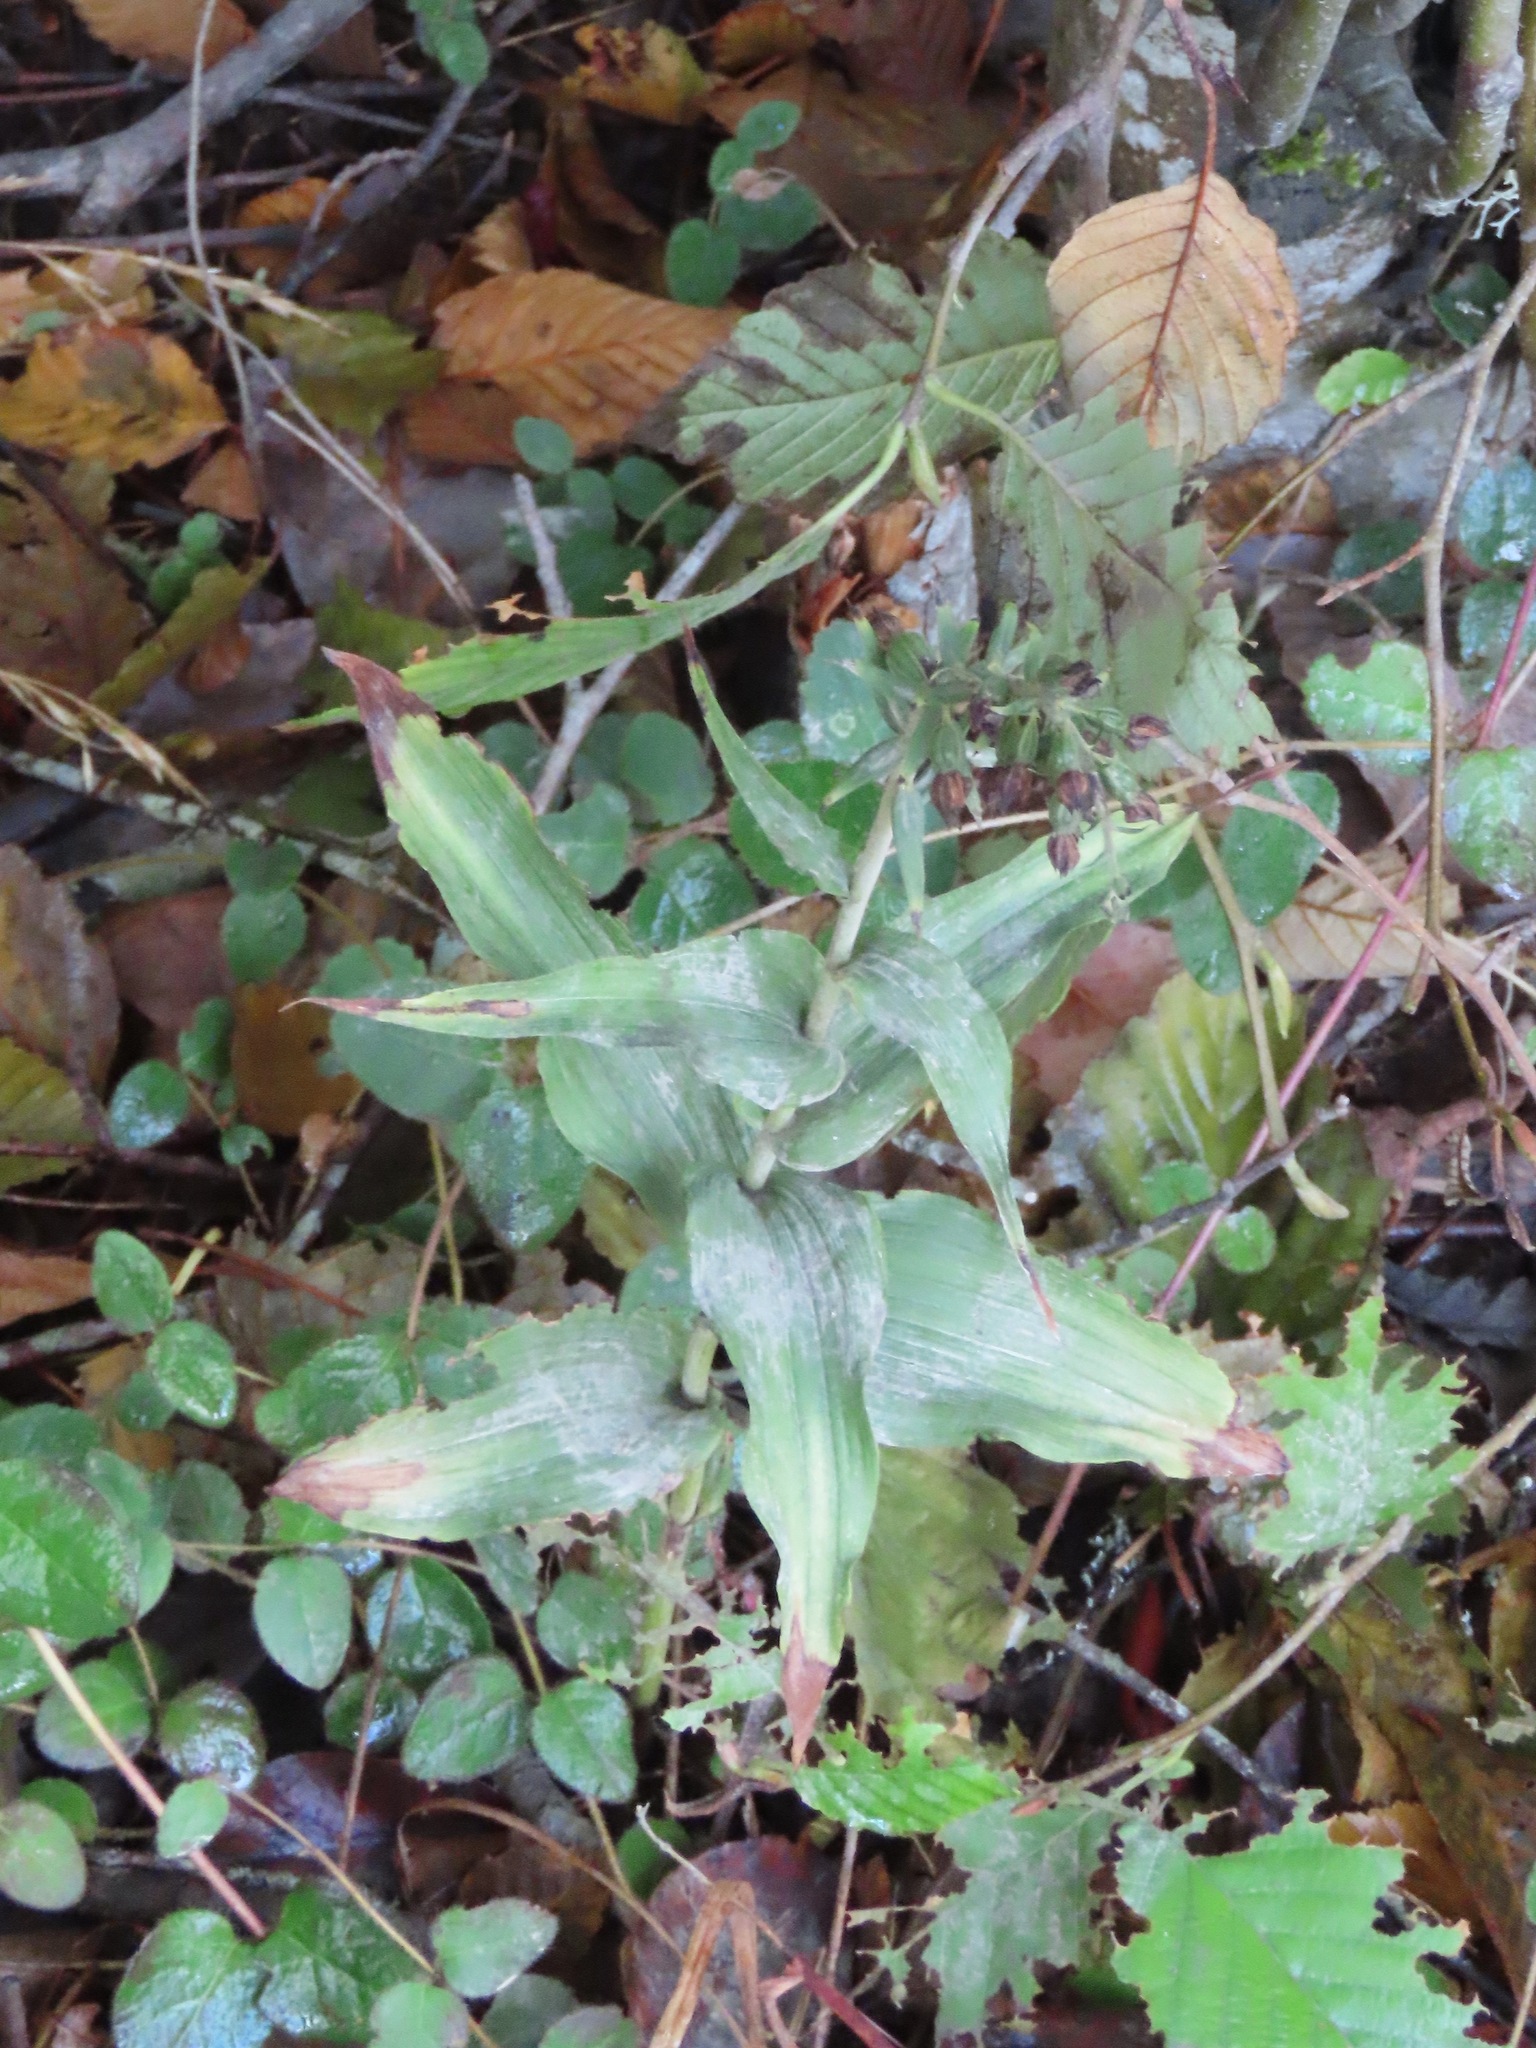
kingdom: Plantae
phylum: Tracheophyta
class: Liliopsida
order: Asparagales
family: Orchidaceae
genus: Epipactis
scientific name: Epipactis helleborine
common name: Broad-leaved helleborine
